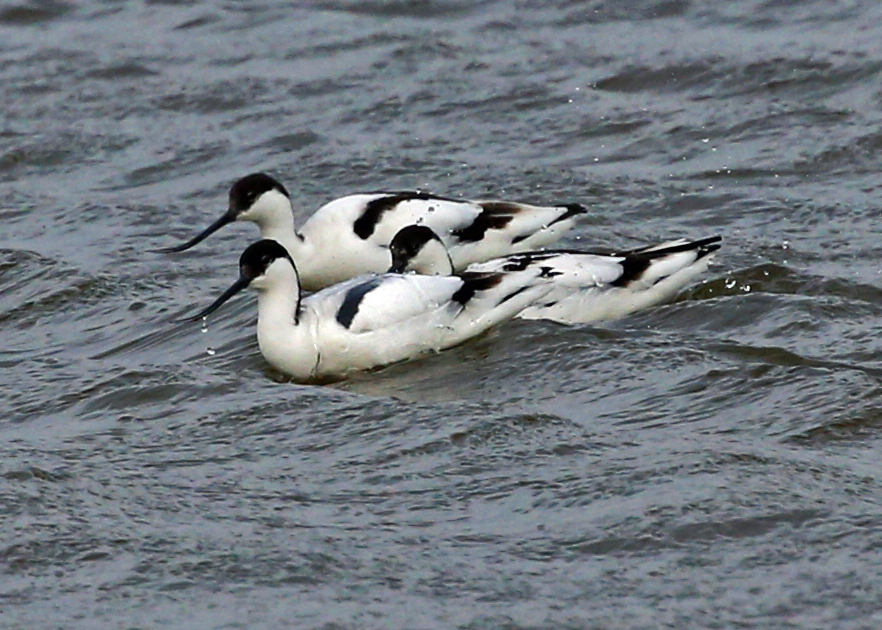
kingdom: Animalia
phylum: Chordata
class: Aves
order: Charadriiformes
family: Recurvirostridae
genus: Recurvirostra
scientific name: Recurvirostra avosetta
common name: Pied avocet
